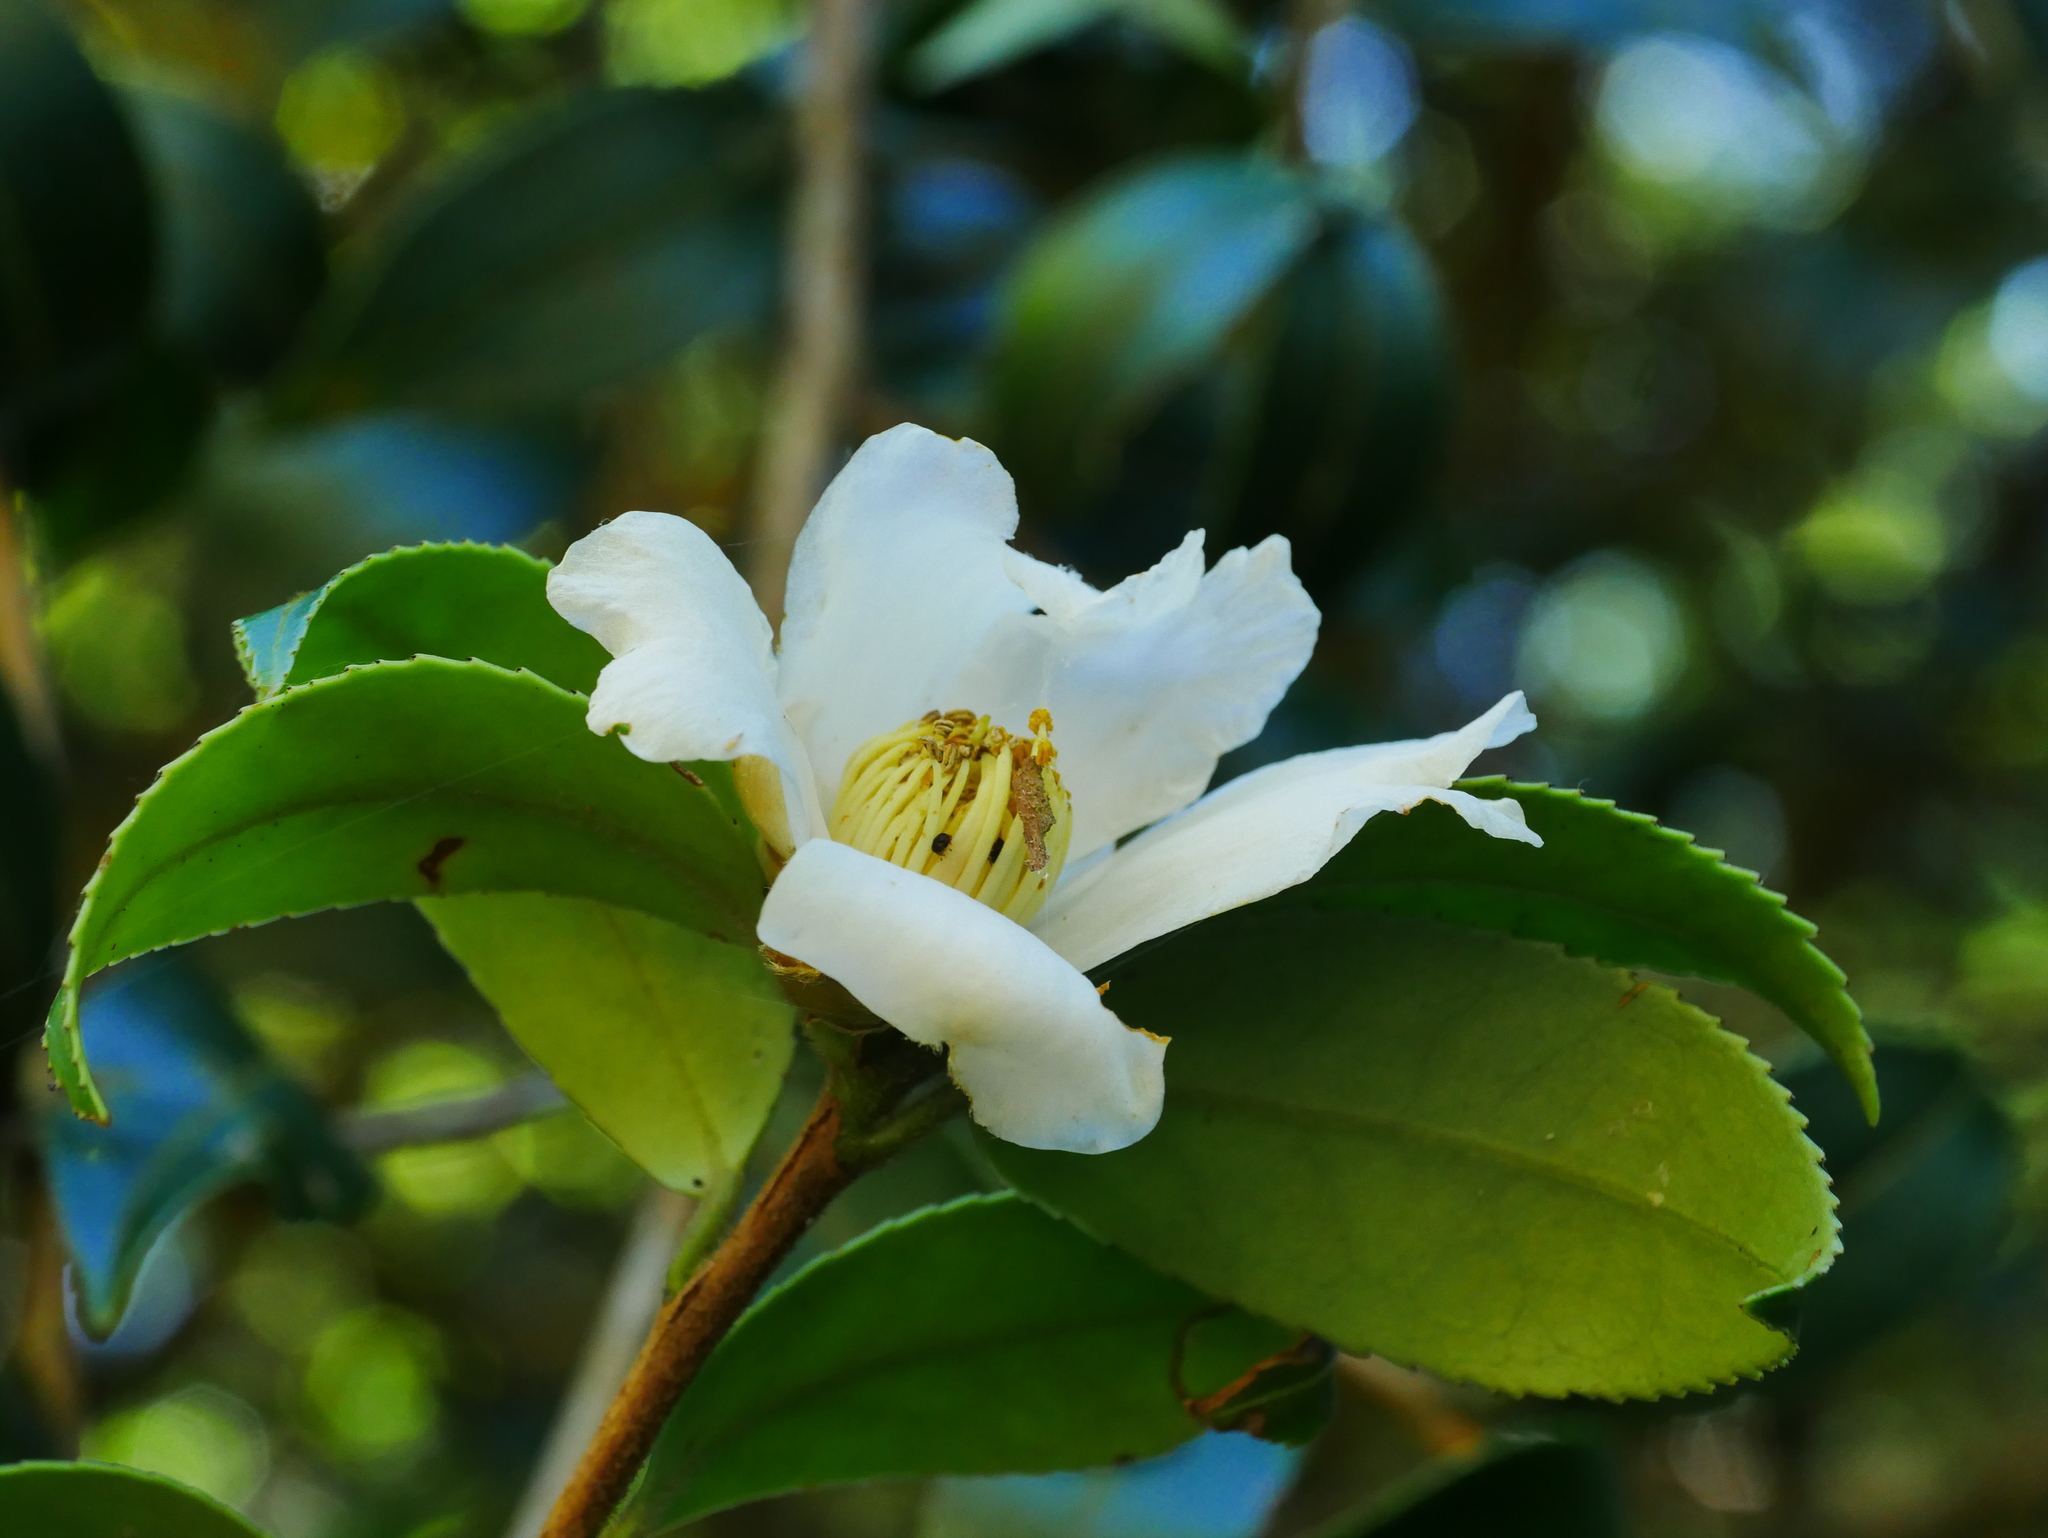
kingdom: Plantae
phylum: Tracheophyta
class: Magnoliopsida
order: Ericales
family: Theaceae
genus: Camellia
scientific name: Camellia brevistyla
